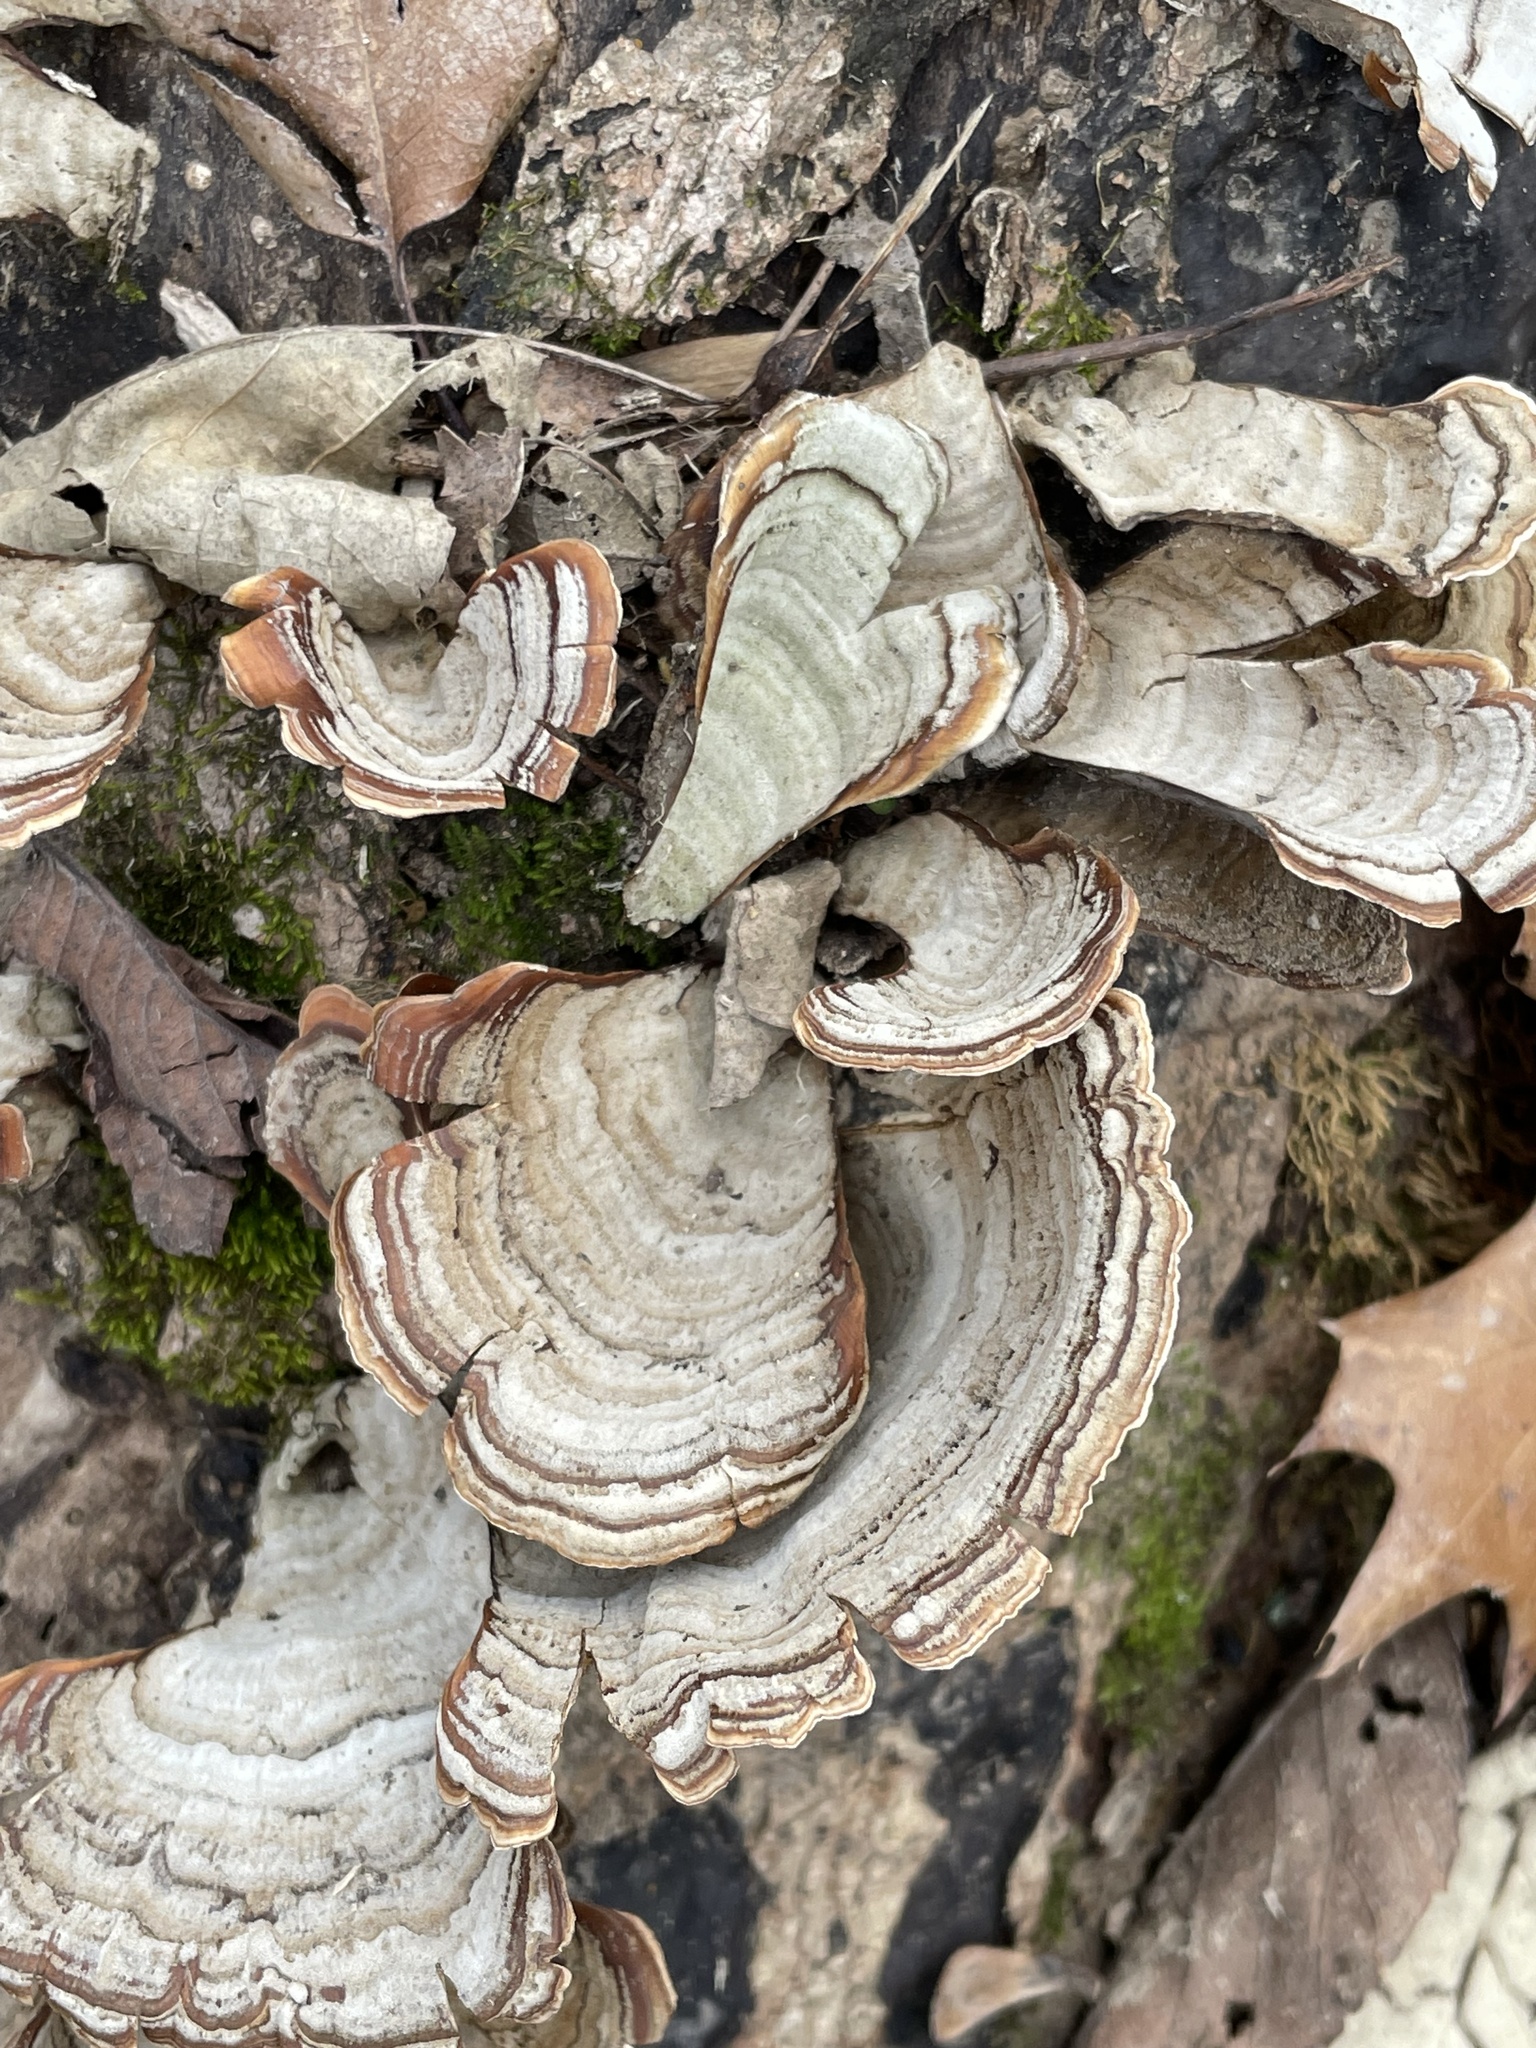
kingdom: Fungi
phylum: Basidiomycota
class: Agaricomycetes
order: Russulales
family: Stereaceae
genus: Stereum
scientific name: Stereum lobatum
